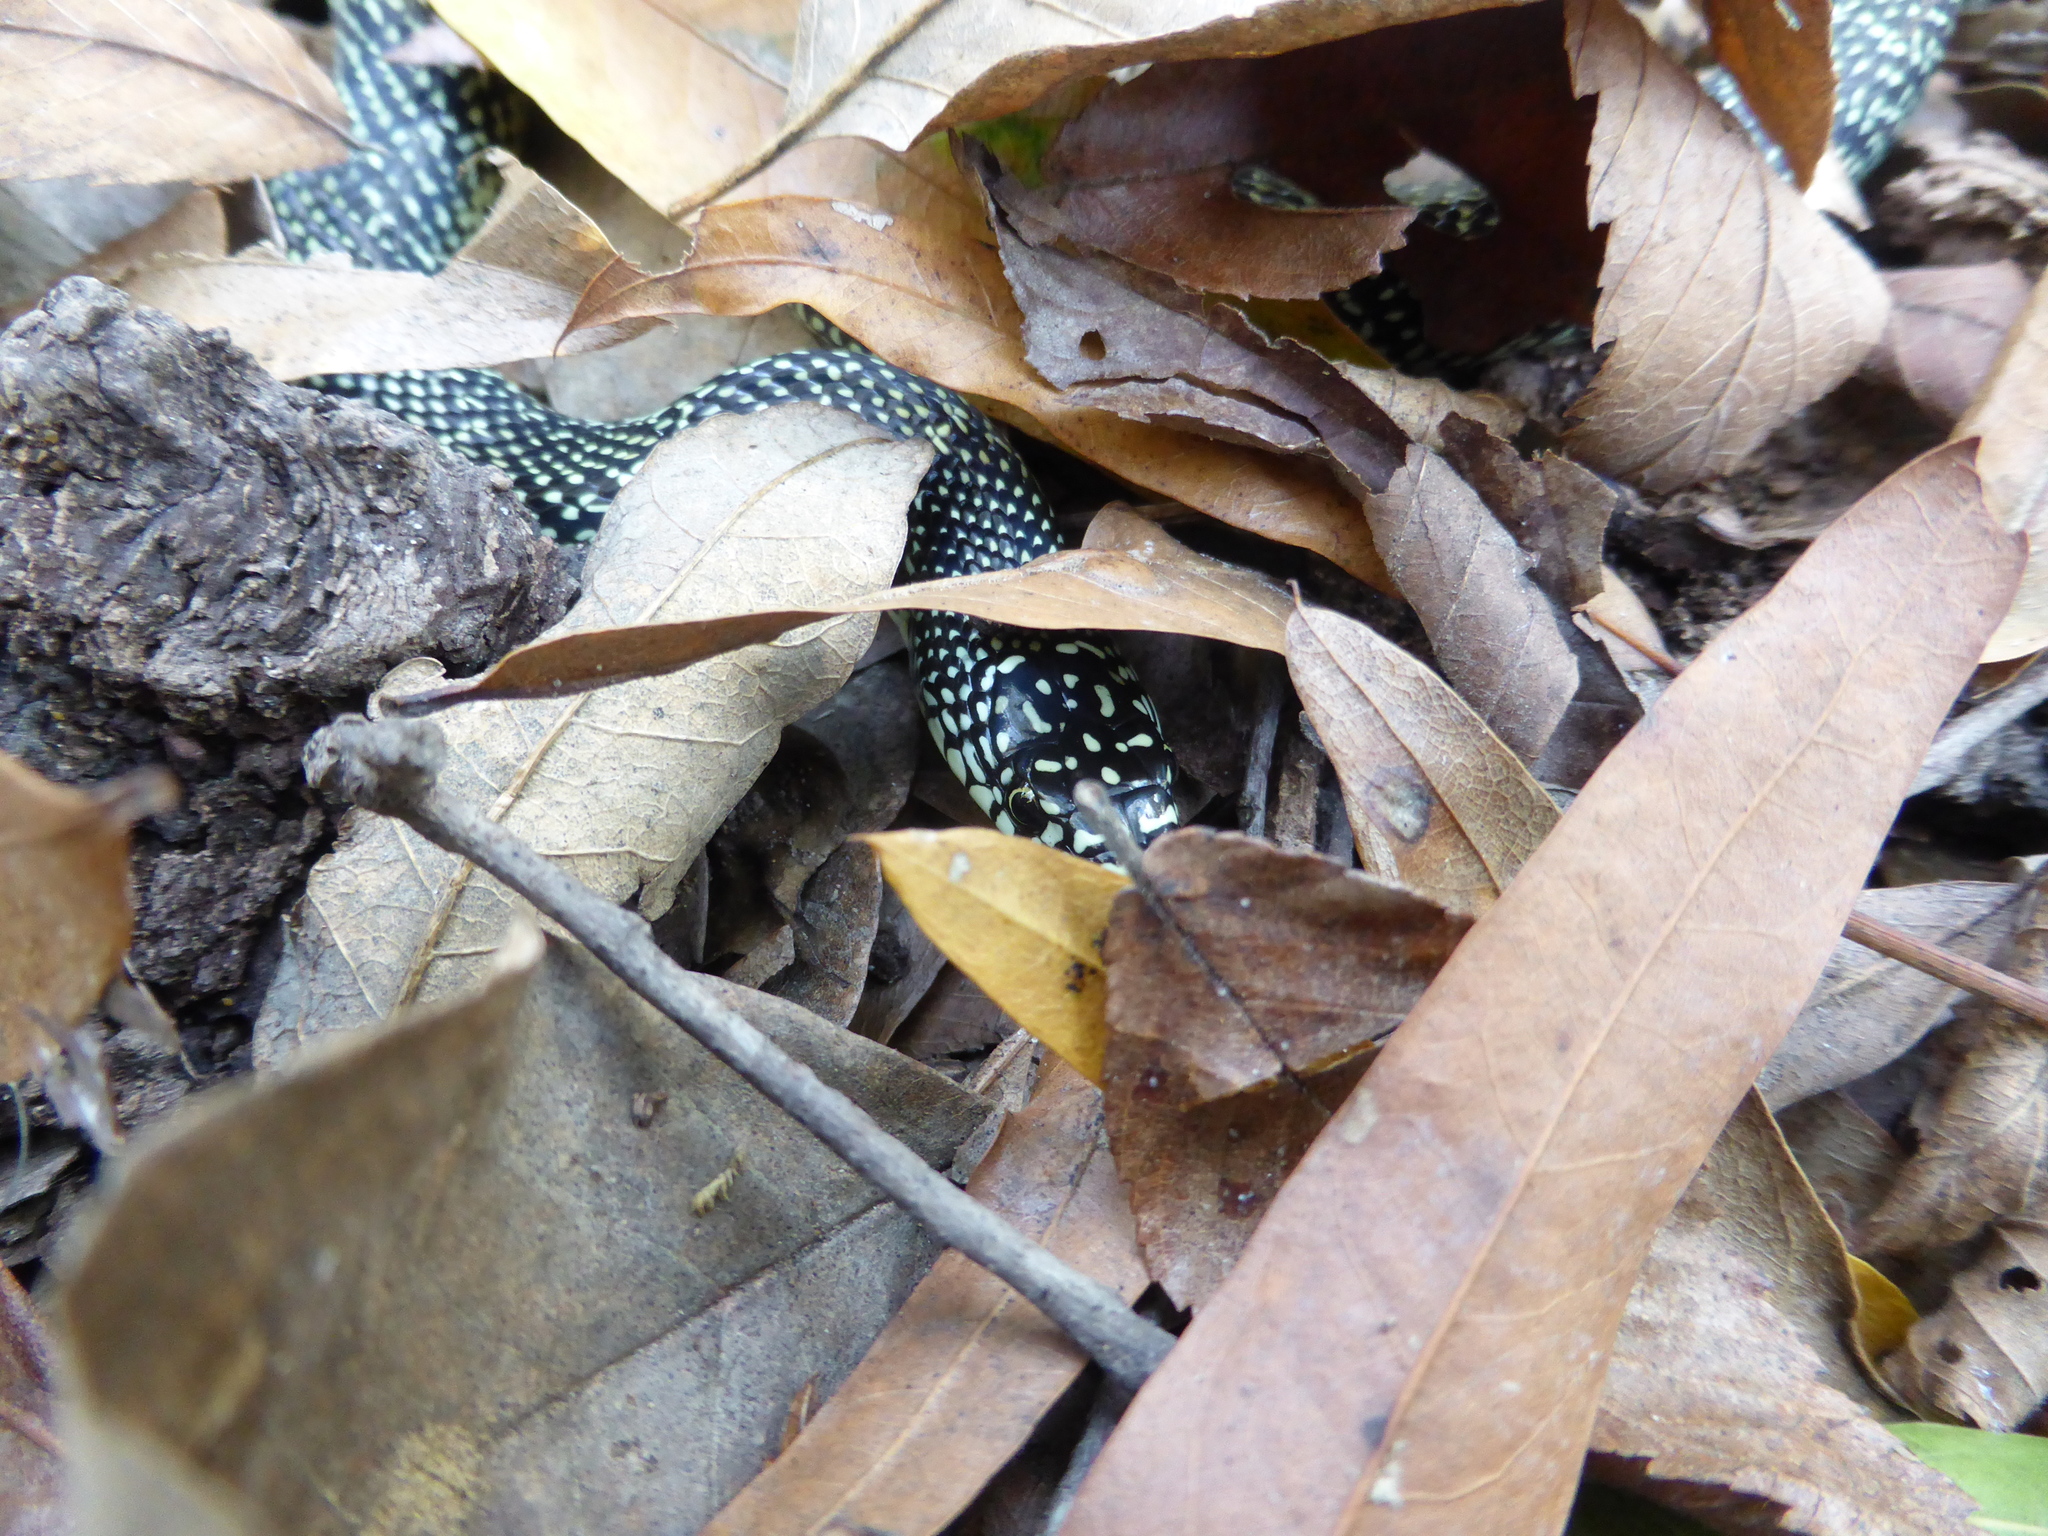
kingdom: Animalia
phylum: Chordata
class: Squamata
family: Colubridae
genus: Lampropeltis
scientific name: Lampropeltis holbrooki
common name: Speckled kingsnake
